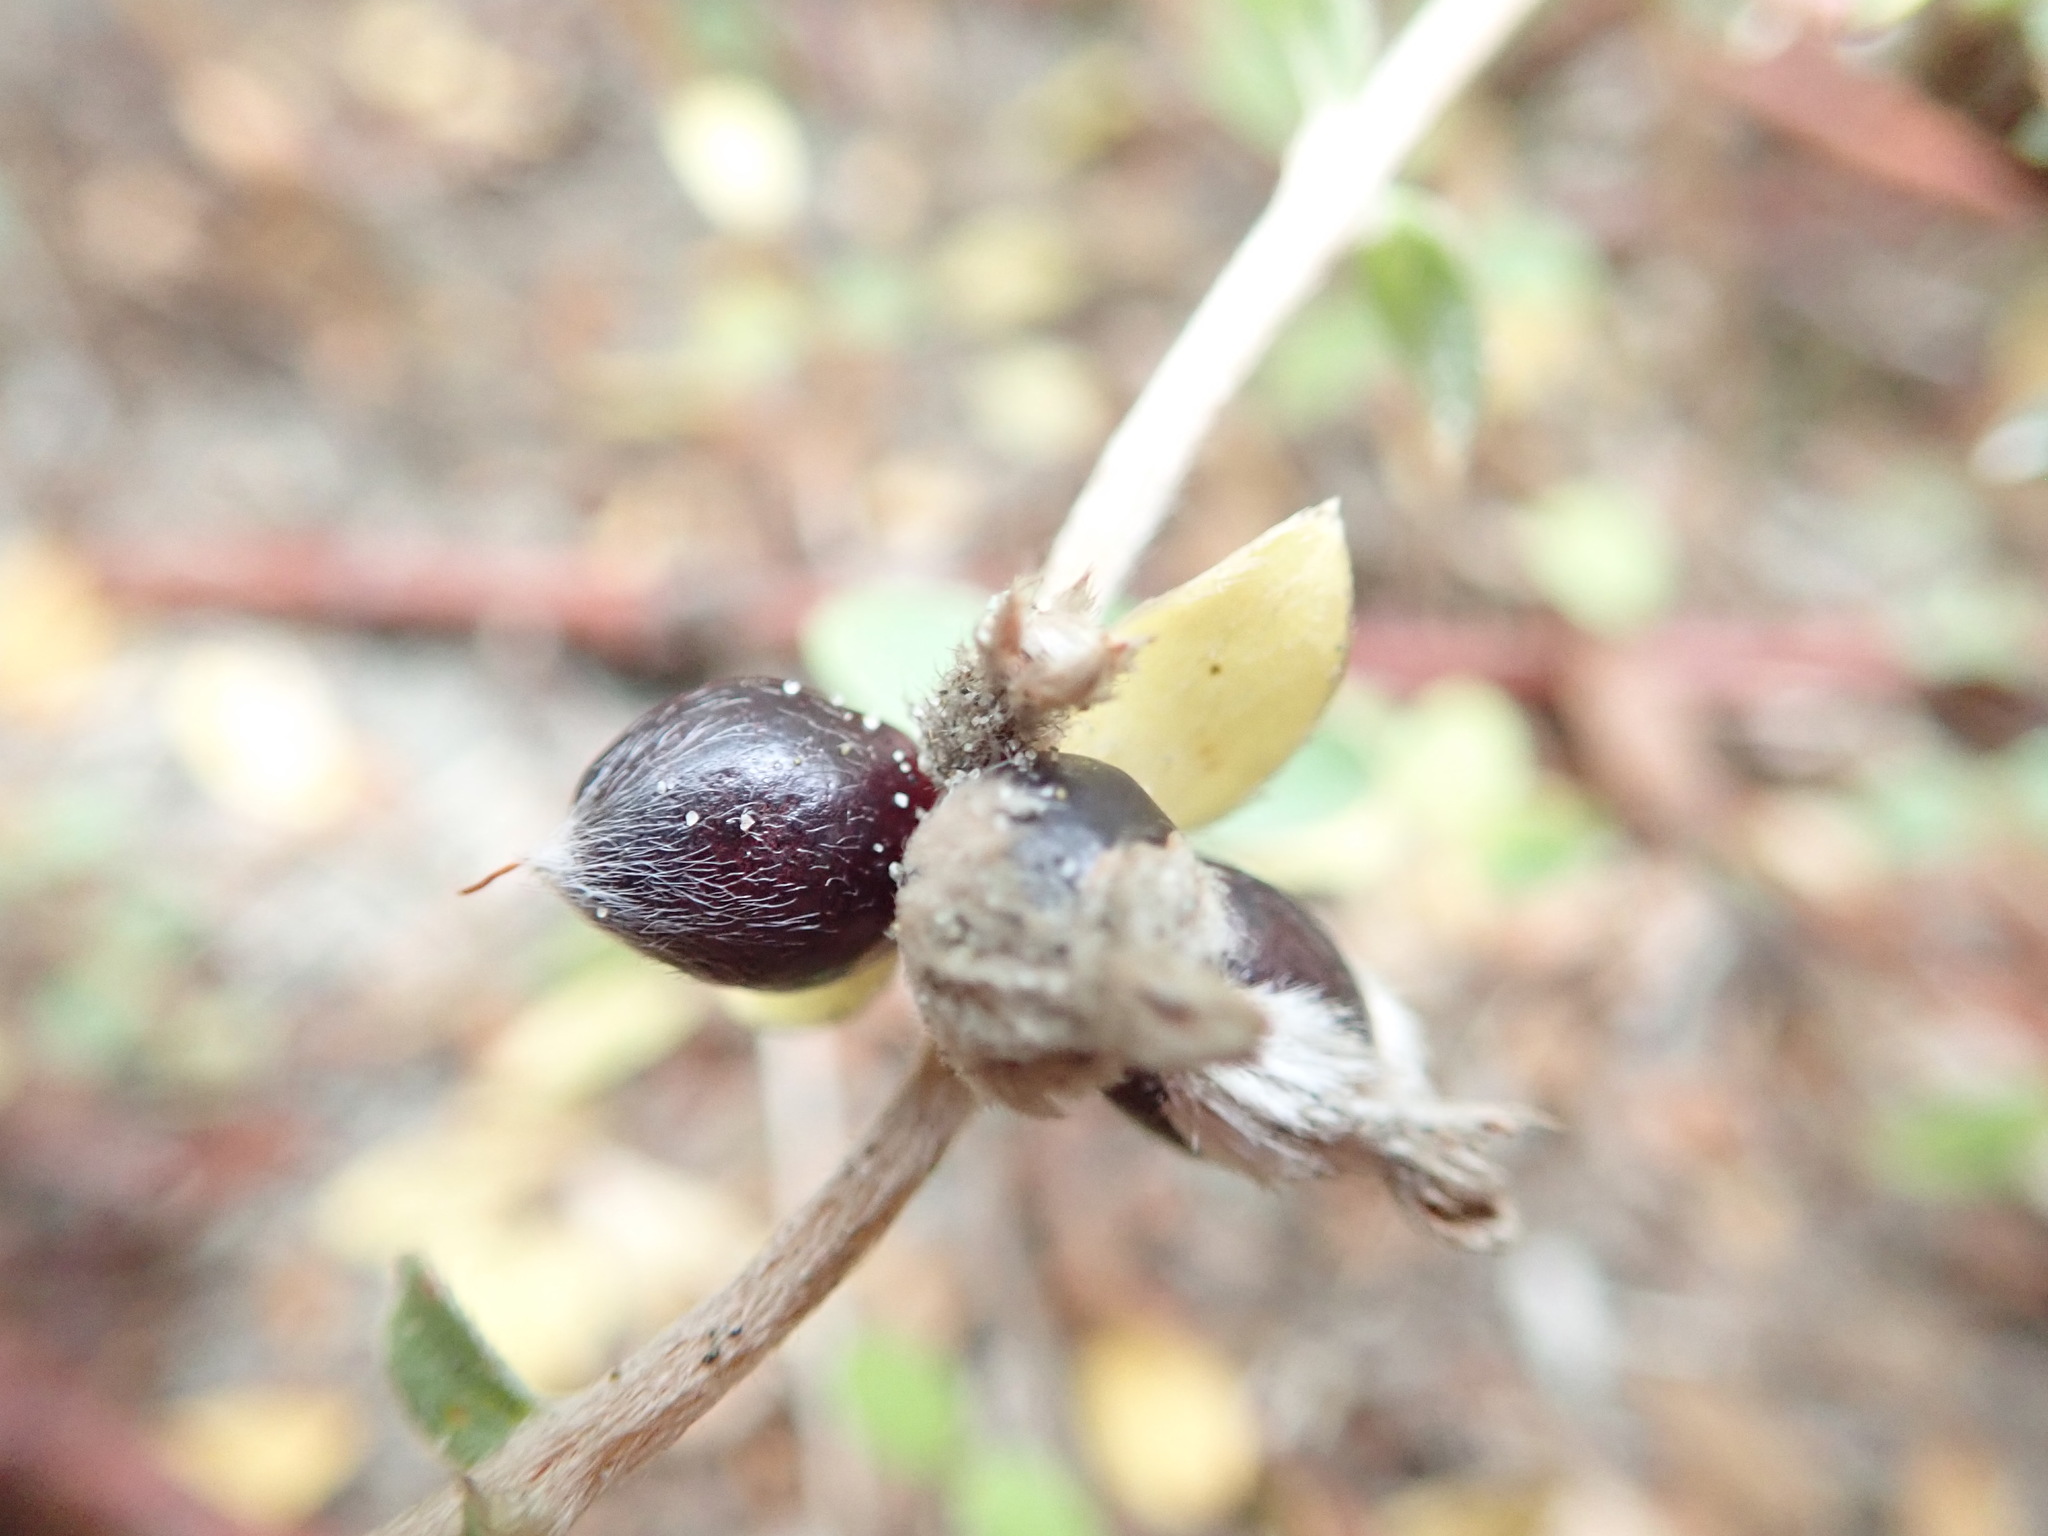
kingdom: Plantae
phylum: Tracheophyta
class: Magnoliopsida
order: Malvales
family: Thymelaeaceae
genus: Pimelea
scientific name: Pimelea villosa
